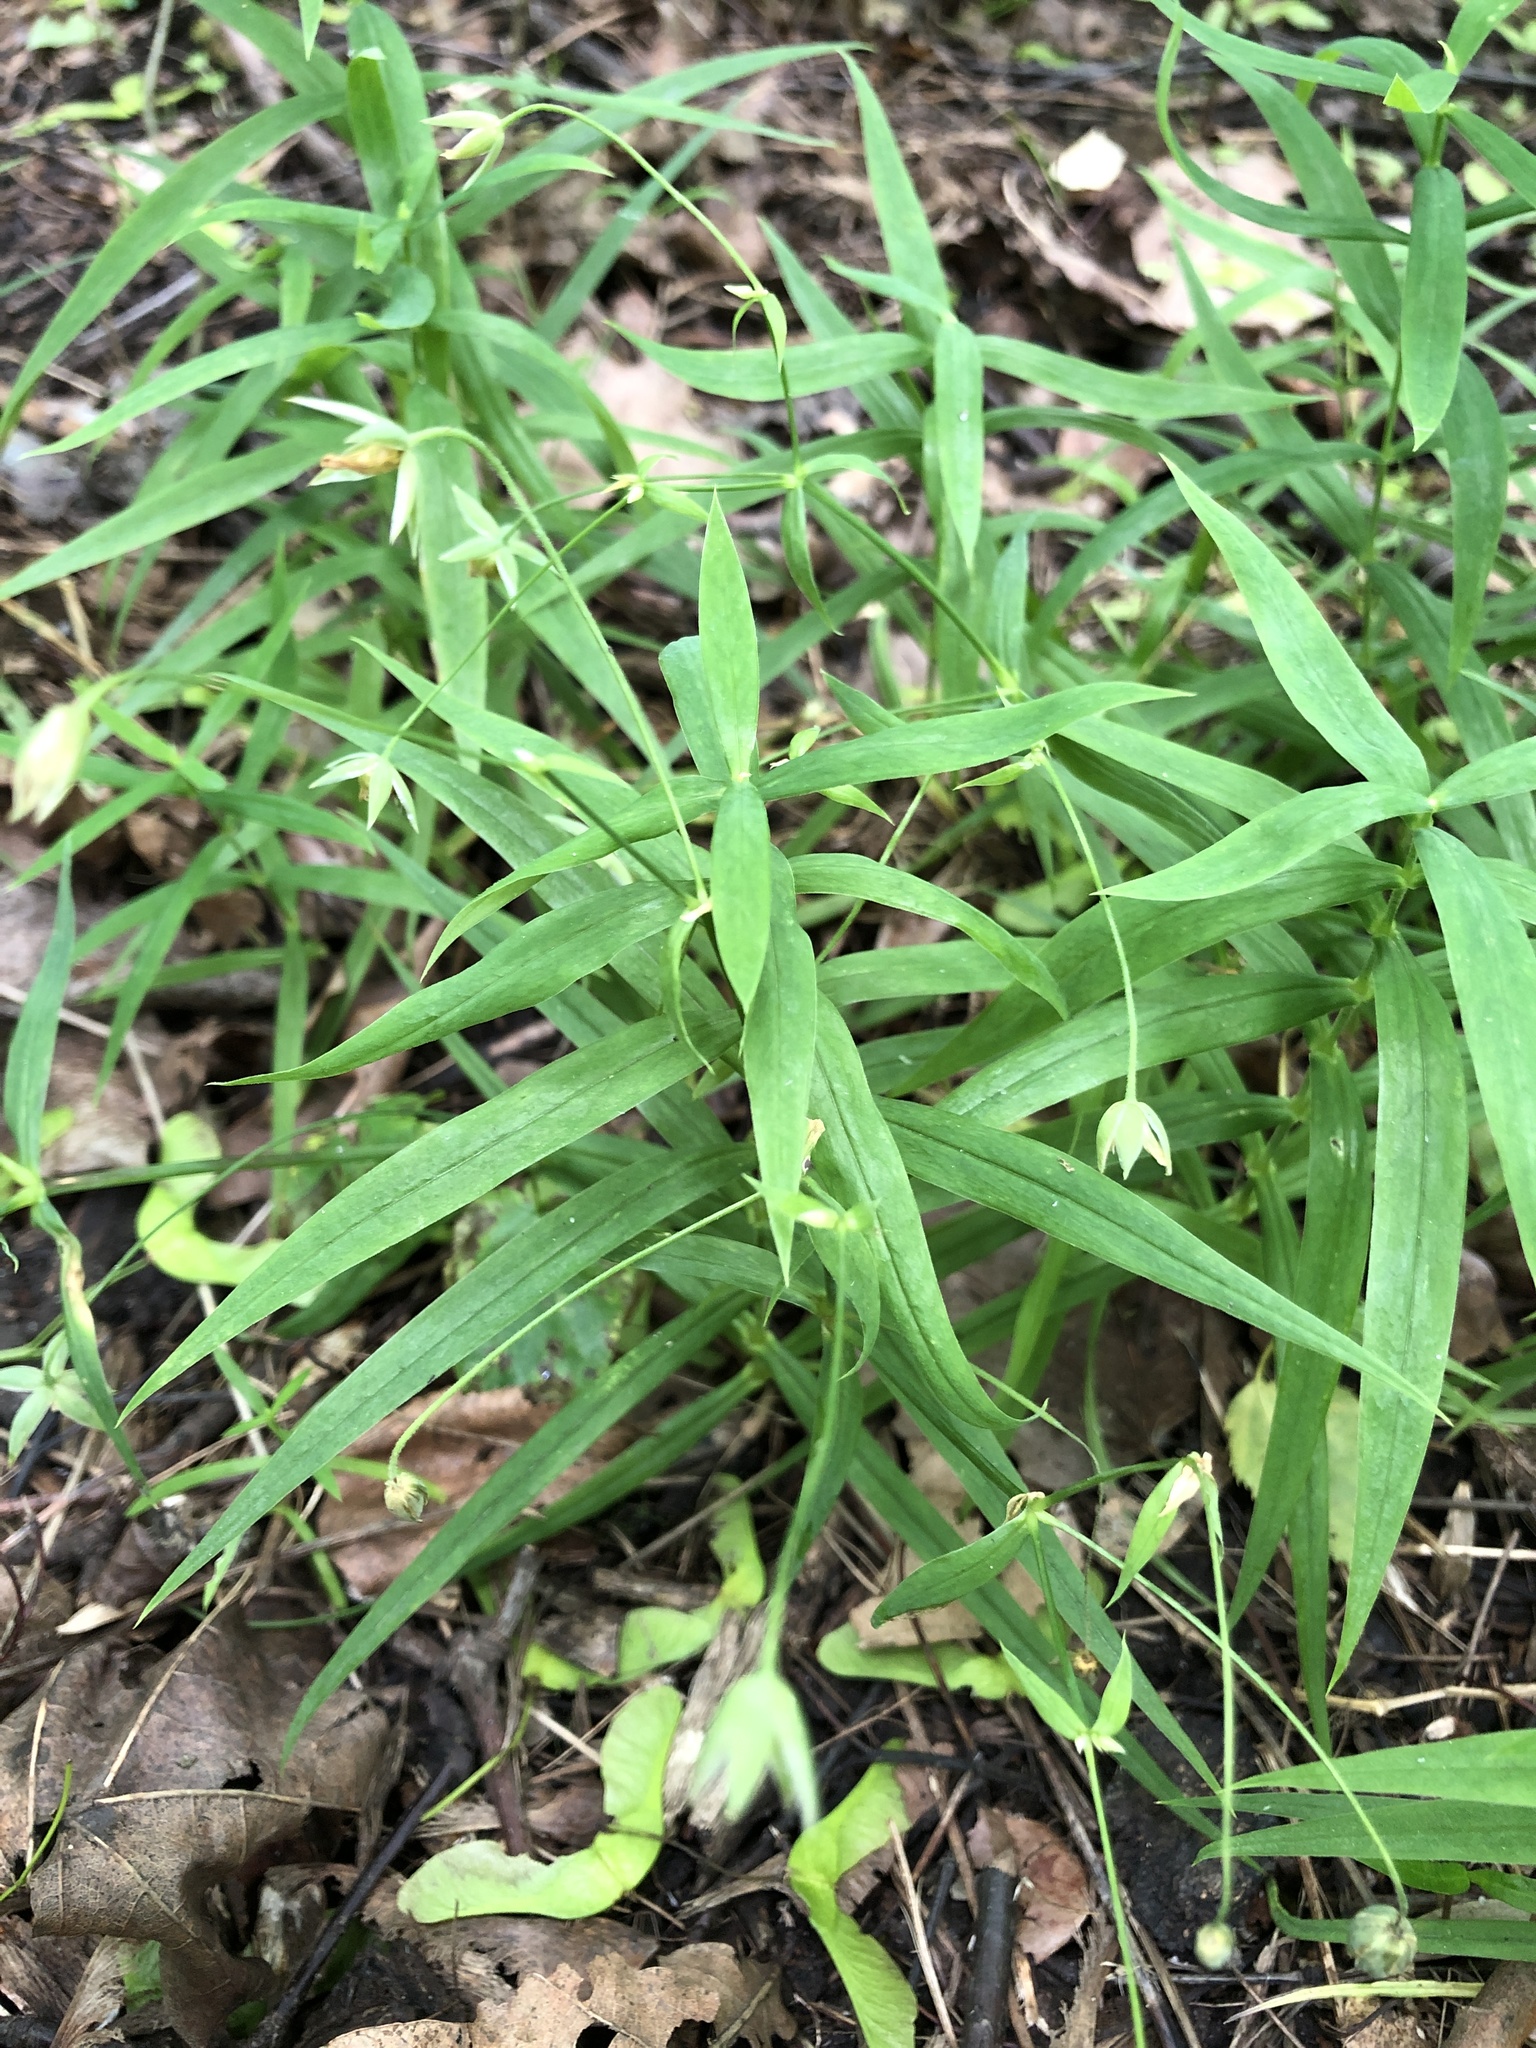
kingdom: Plantae
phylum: Tracheophyta
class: Magnoliopsida
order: Caryophyllales
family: Caryophyllaceae
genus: Rabelera
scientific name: Rabelera holostea
